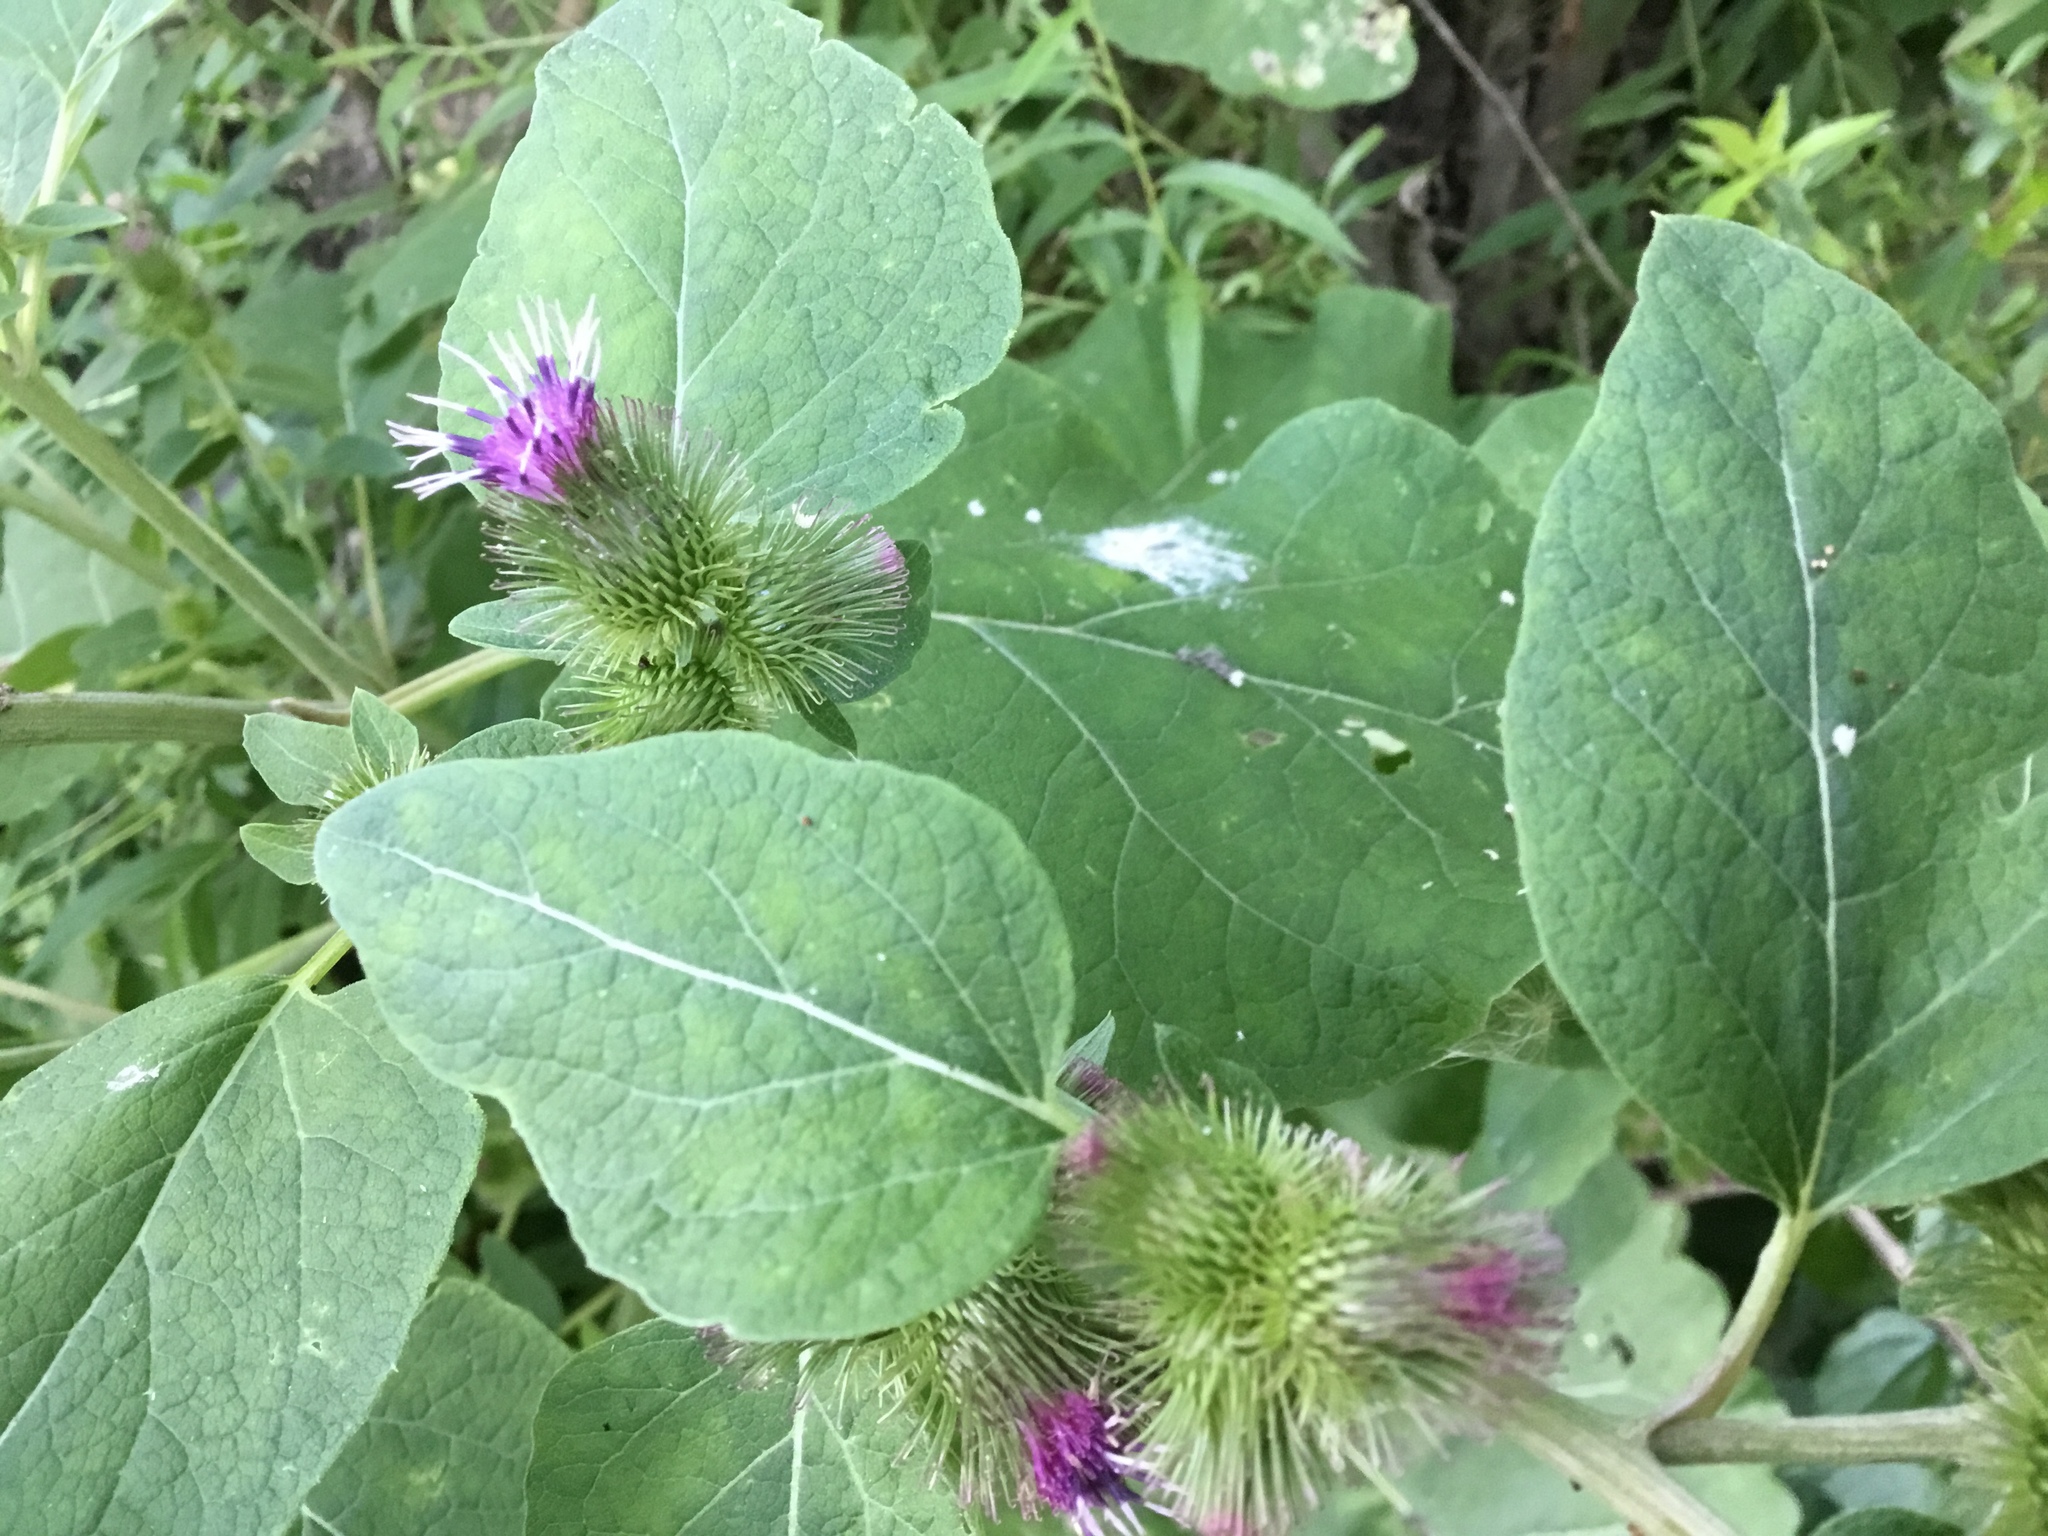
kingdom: Plantae
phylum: Tracheophyta
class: Magnoliopsida
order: Asterales
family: Asteraceae
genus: Arctium
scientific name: Arctium minus
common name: Lesser burdock
